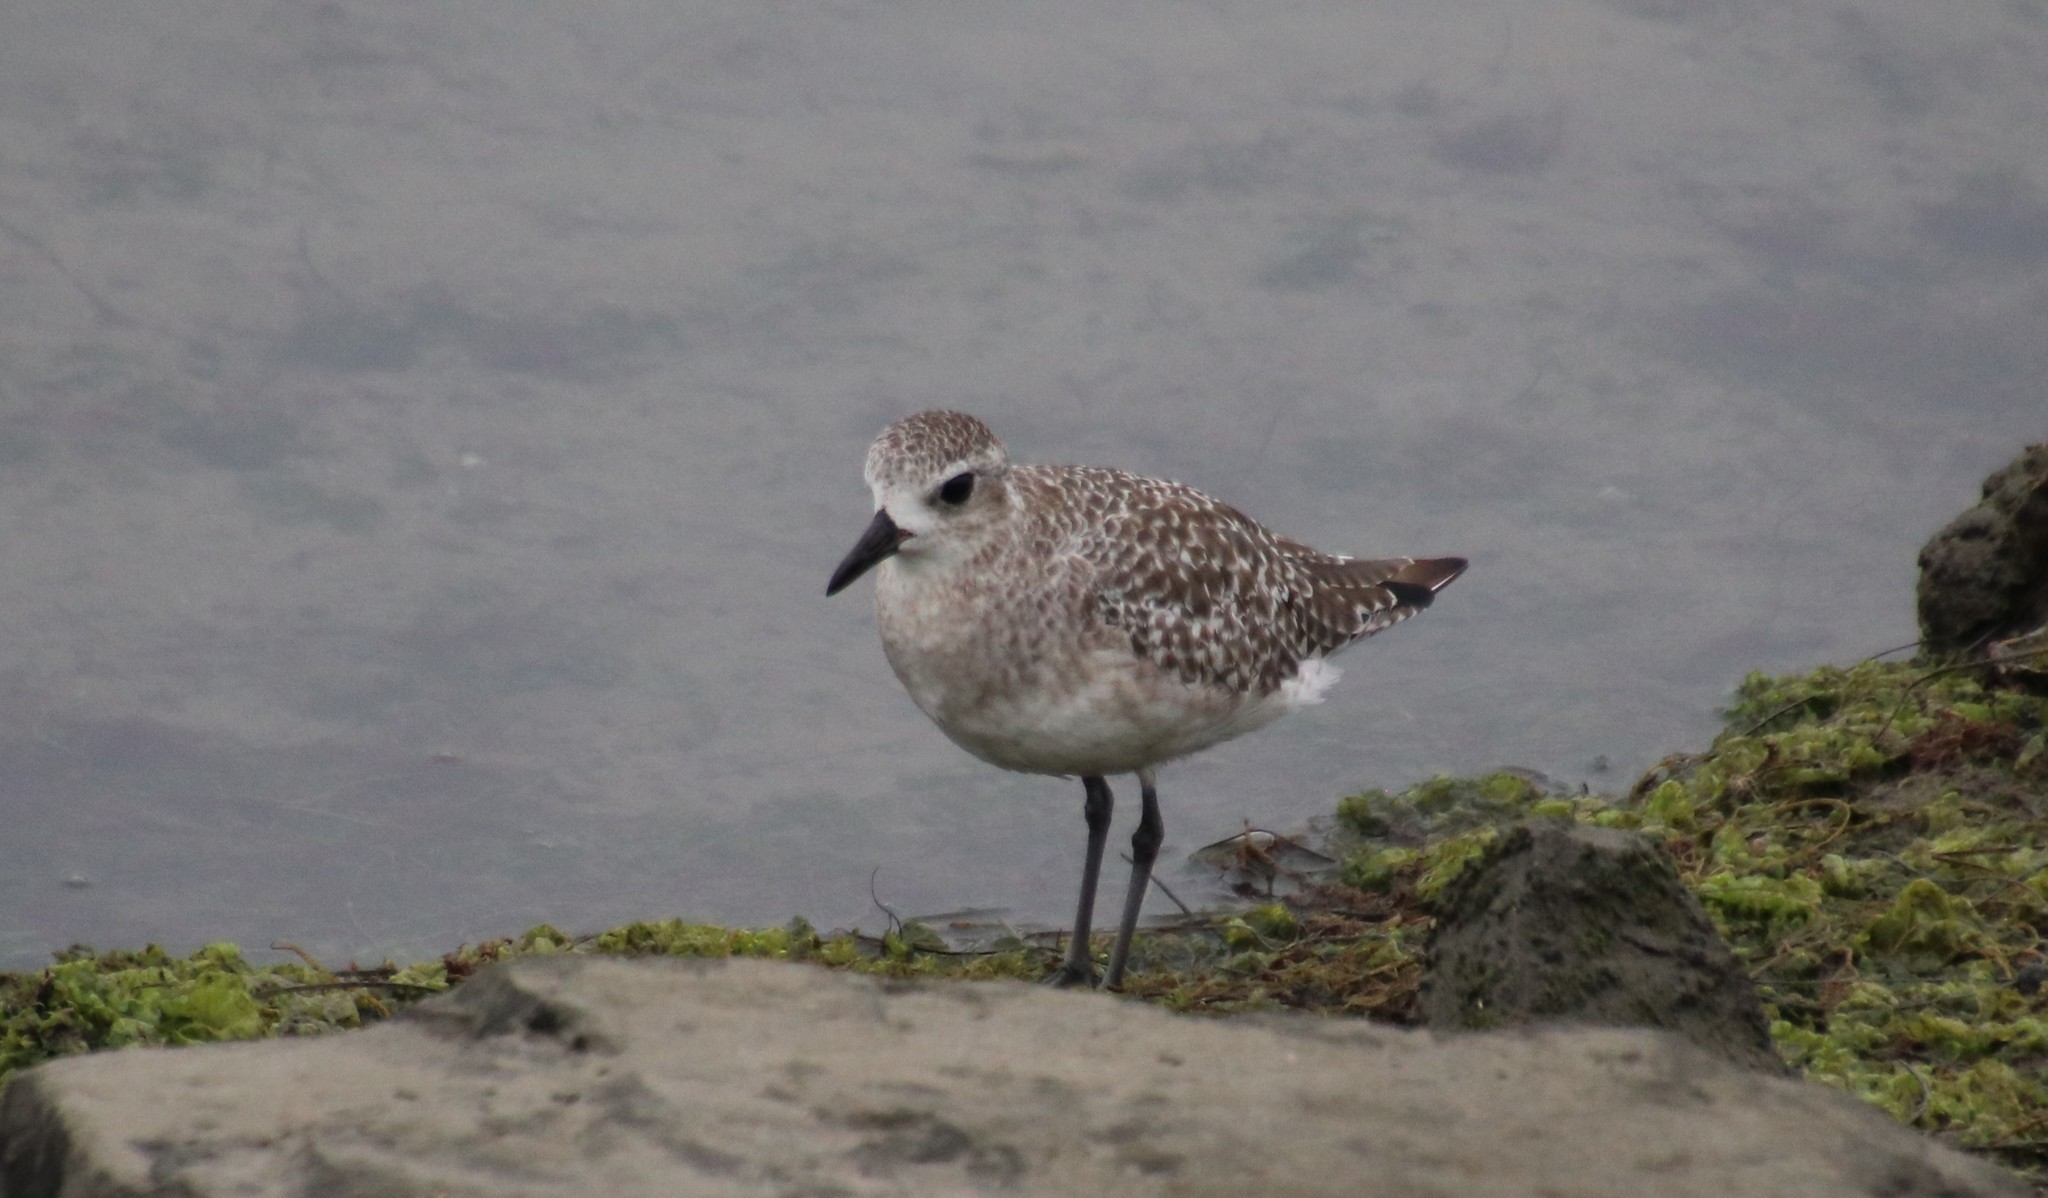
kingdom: Animalia
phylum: Chordata
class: Aves
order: Charadriiformes
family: Charadriidae
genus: Pluvialis
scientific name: Pluvialis squatarola
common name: Grey plover
